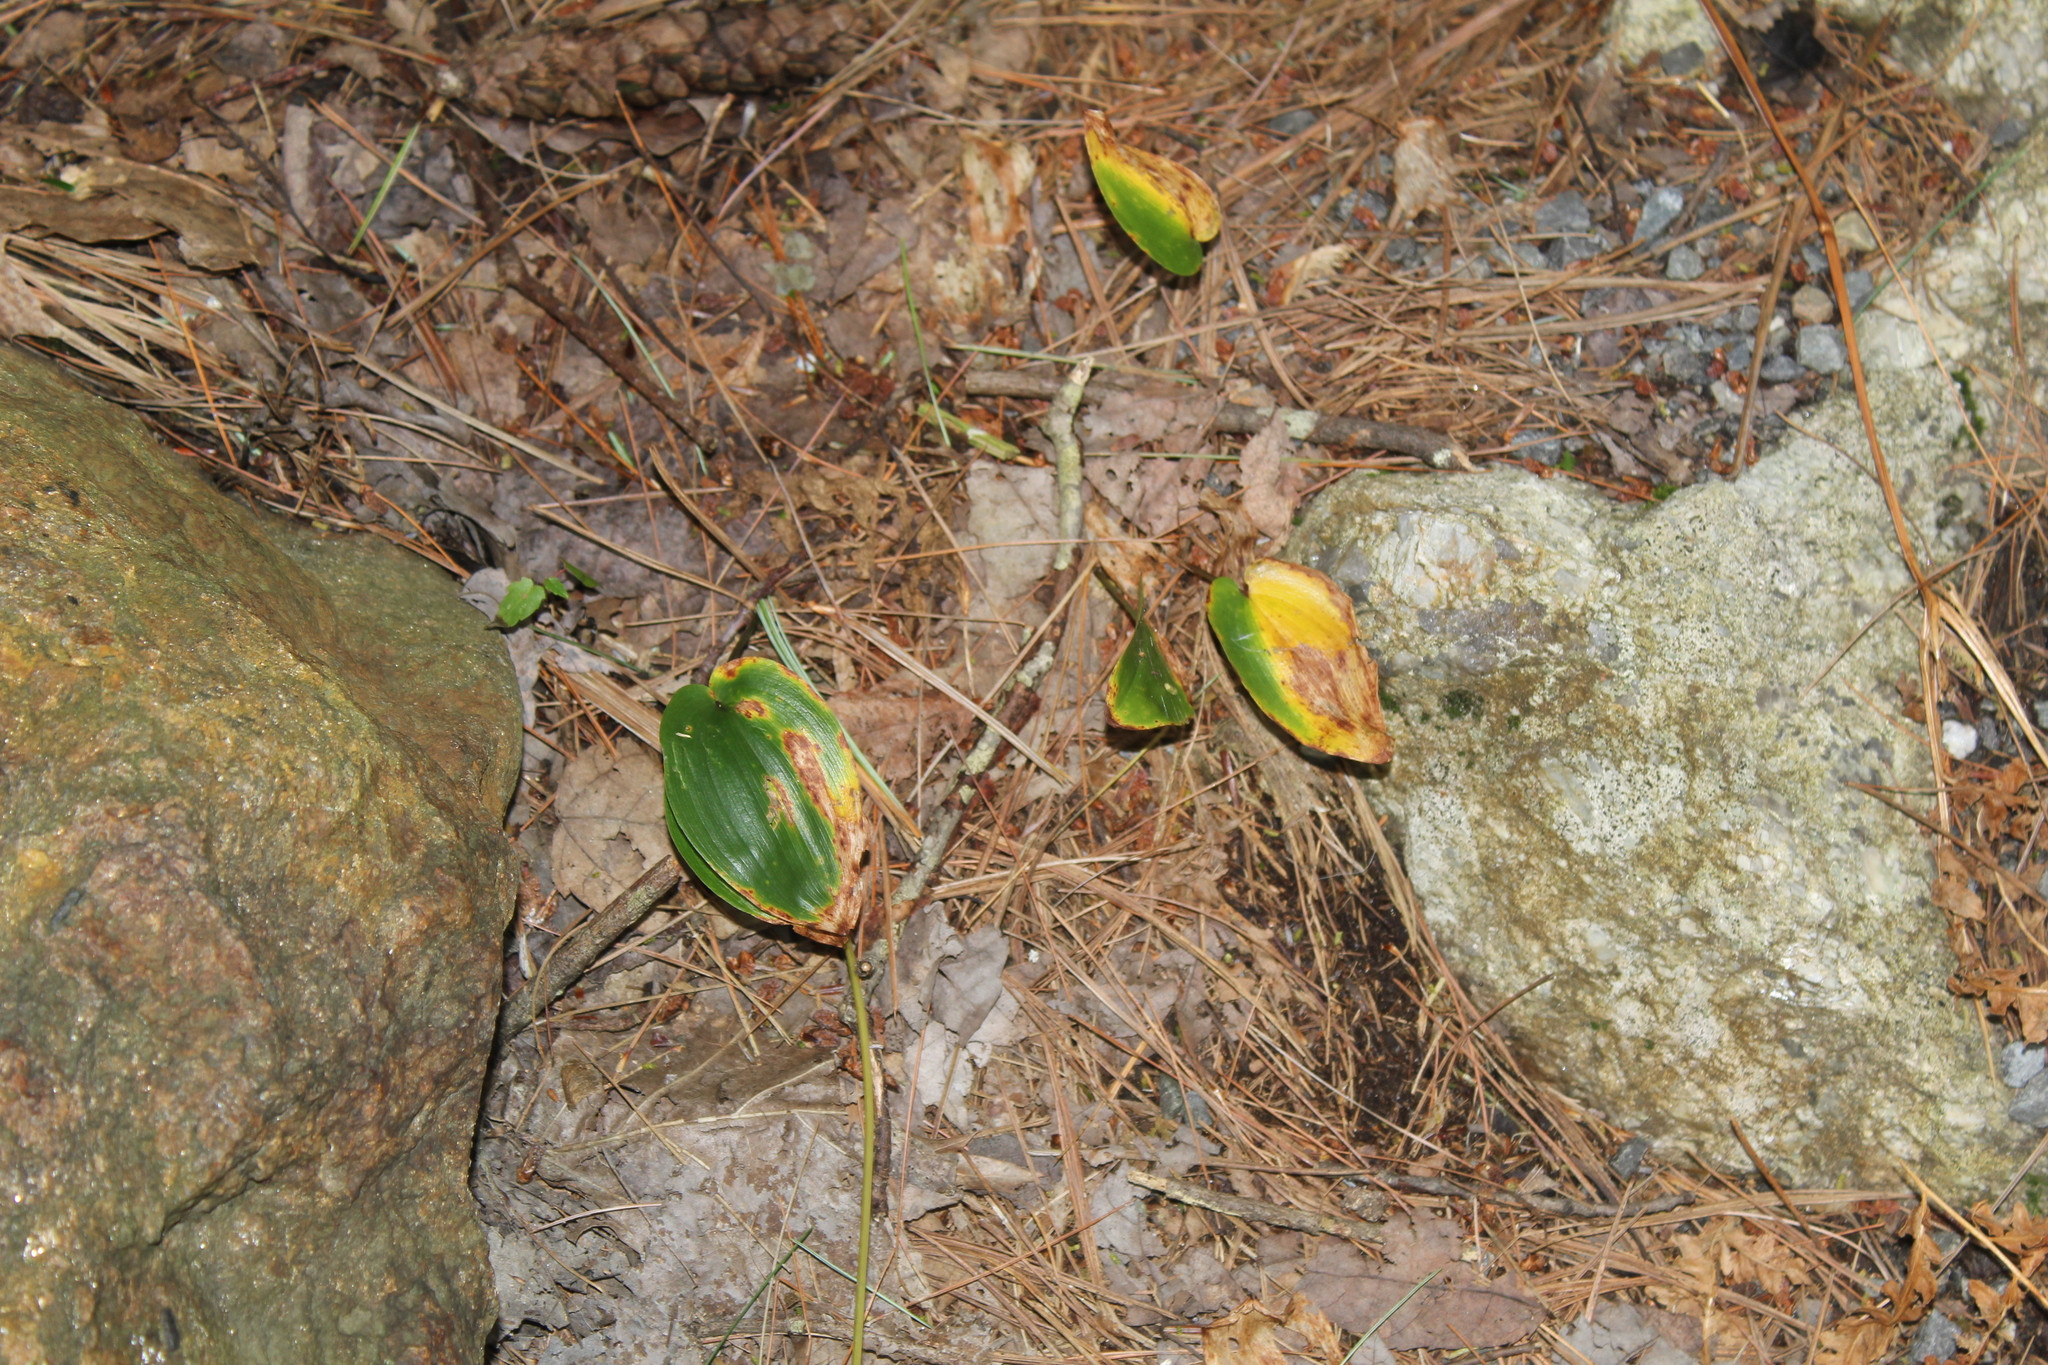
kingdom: Plantae
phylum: Tracheophyta
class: Liliopsida
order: Asparagales
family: Asparagaceae
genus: Maianthemum
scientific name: Maianthemum canadense
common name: False lily-of-the-valley
